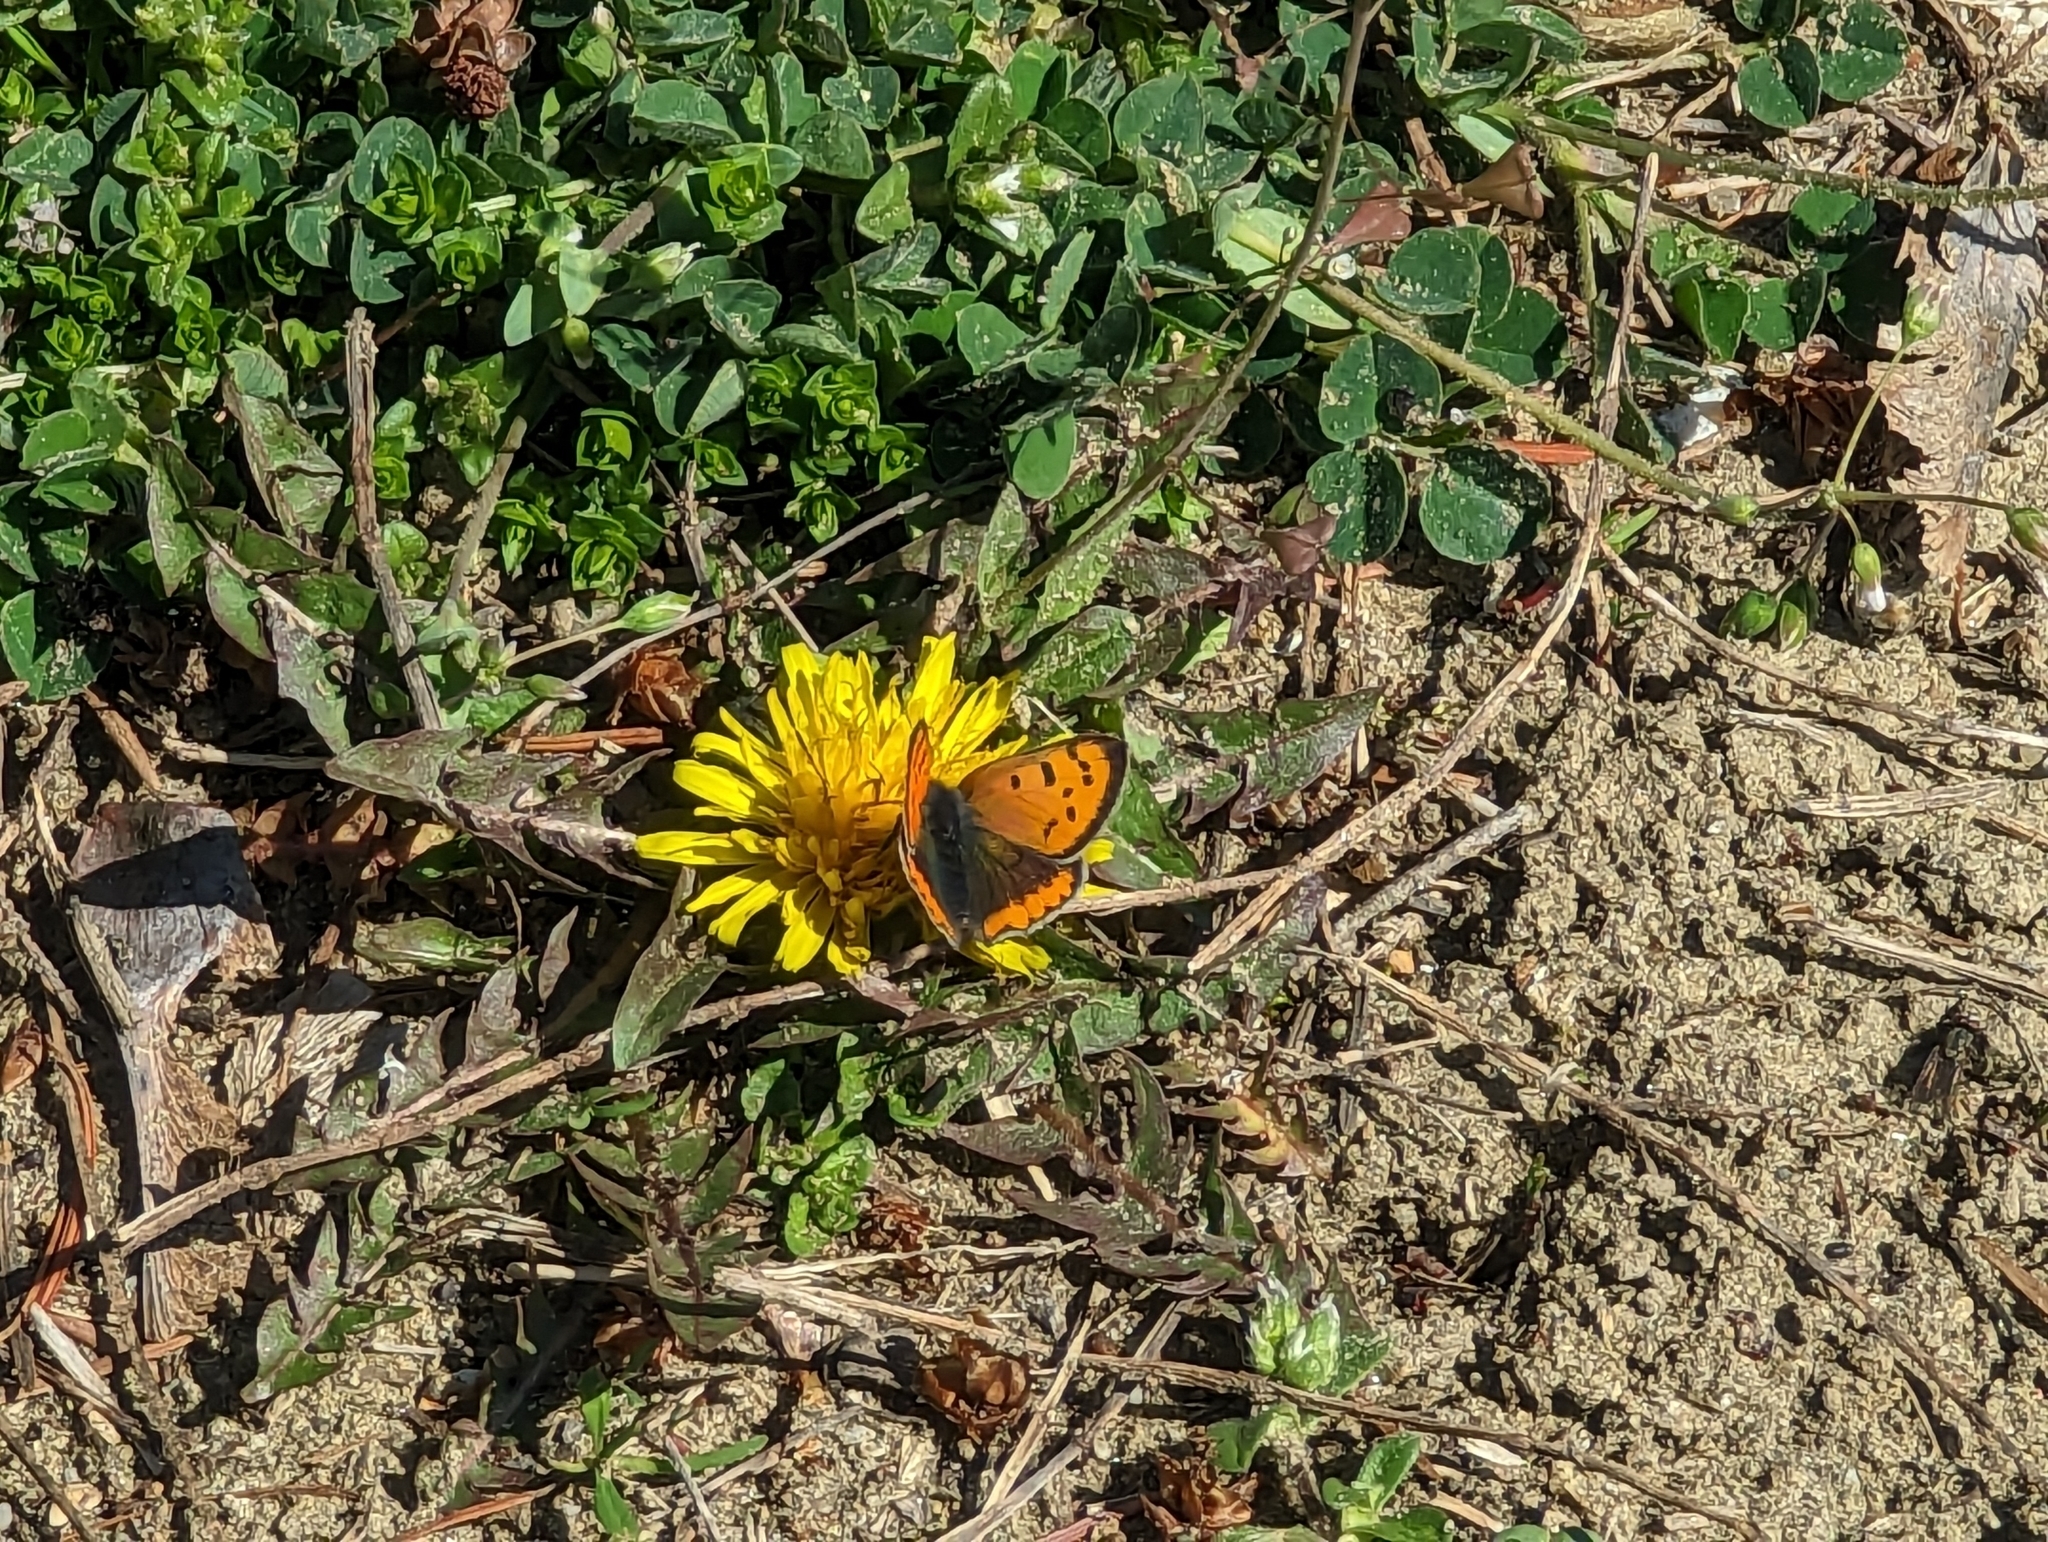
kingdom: Animalia
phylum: Arthropoda
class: Insecta
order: Lepidoptera
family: Lycaenidae
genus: Lycaena
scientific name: Lycaena phlaeas
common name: Small copper
